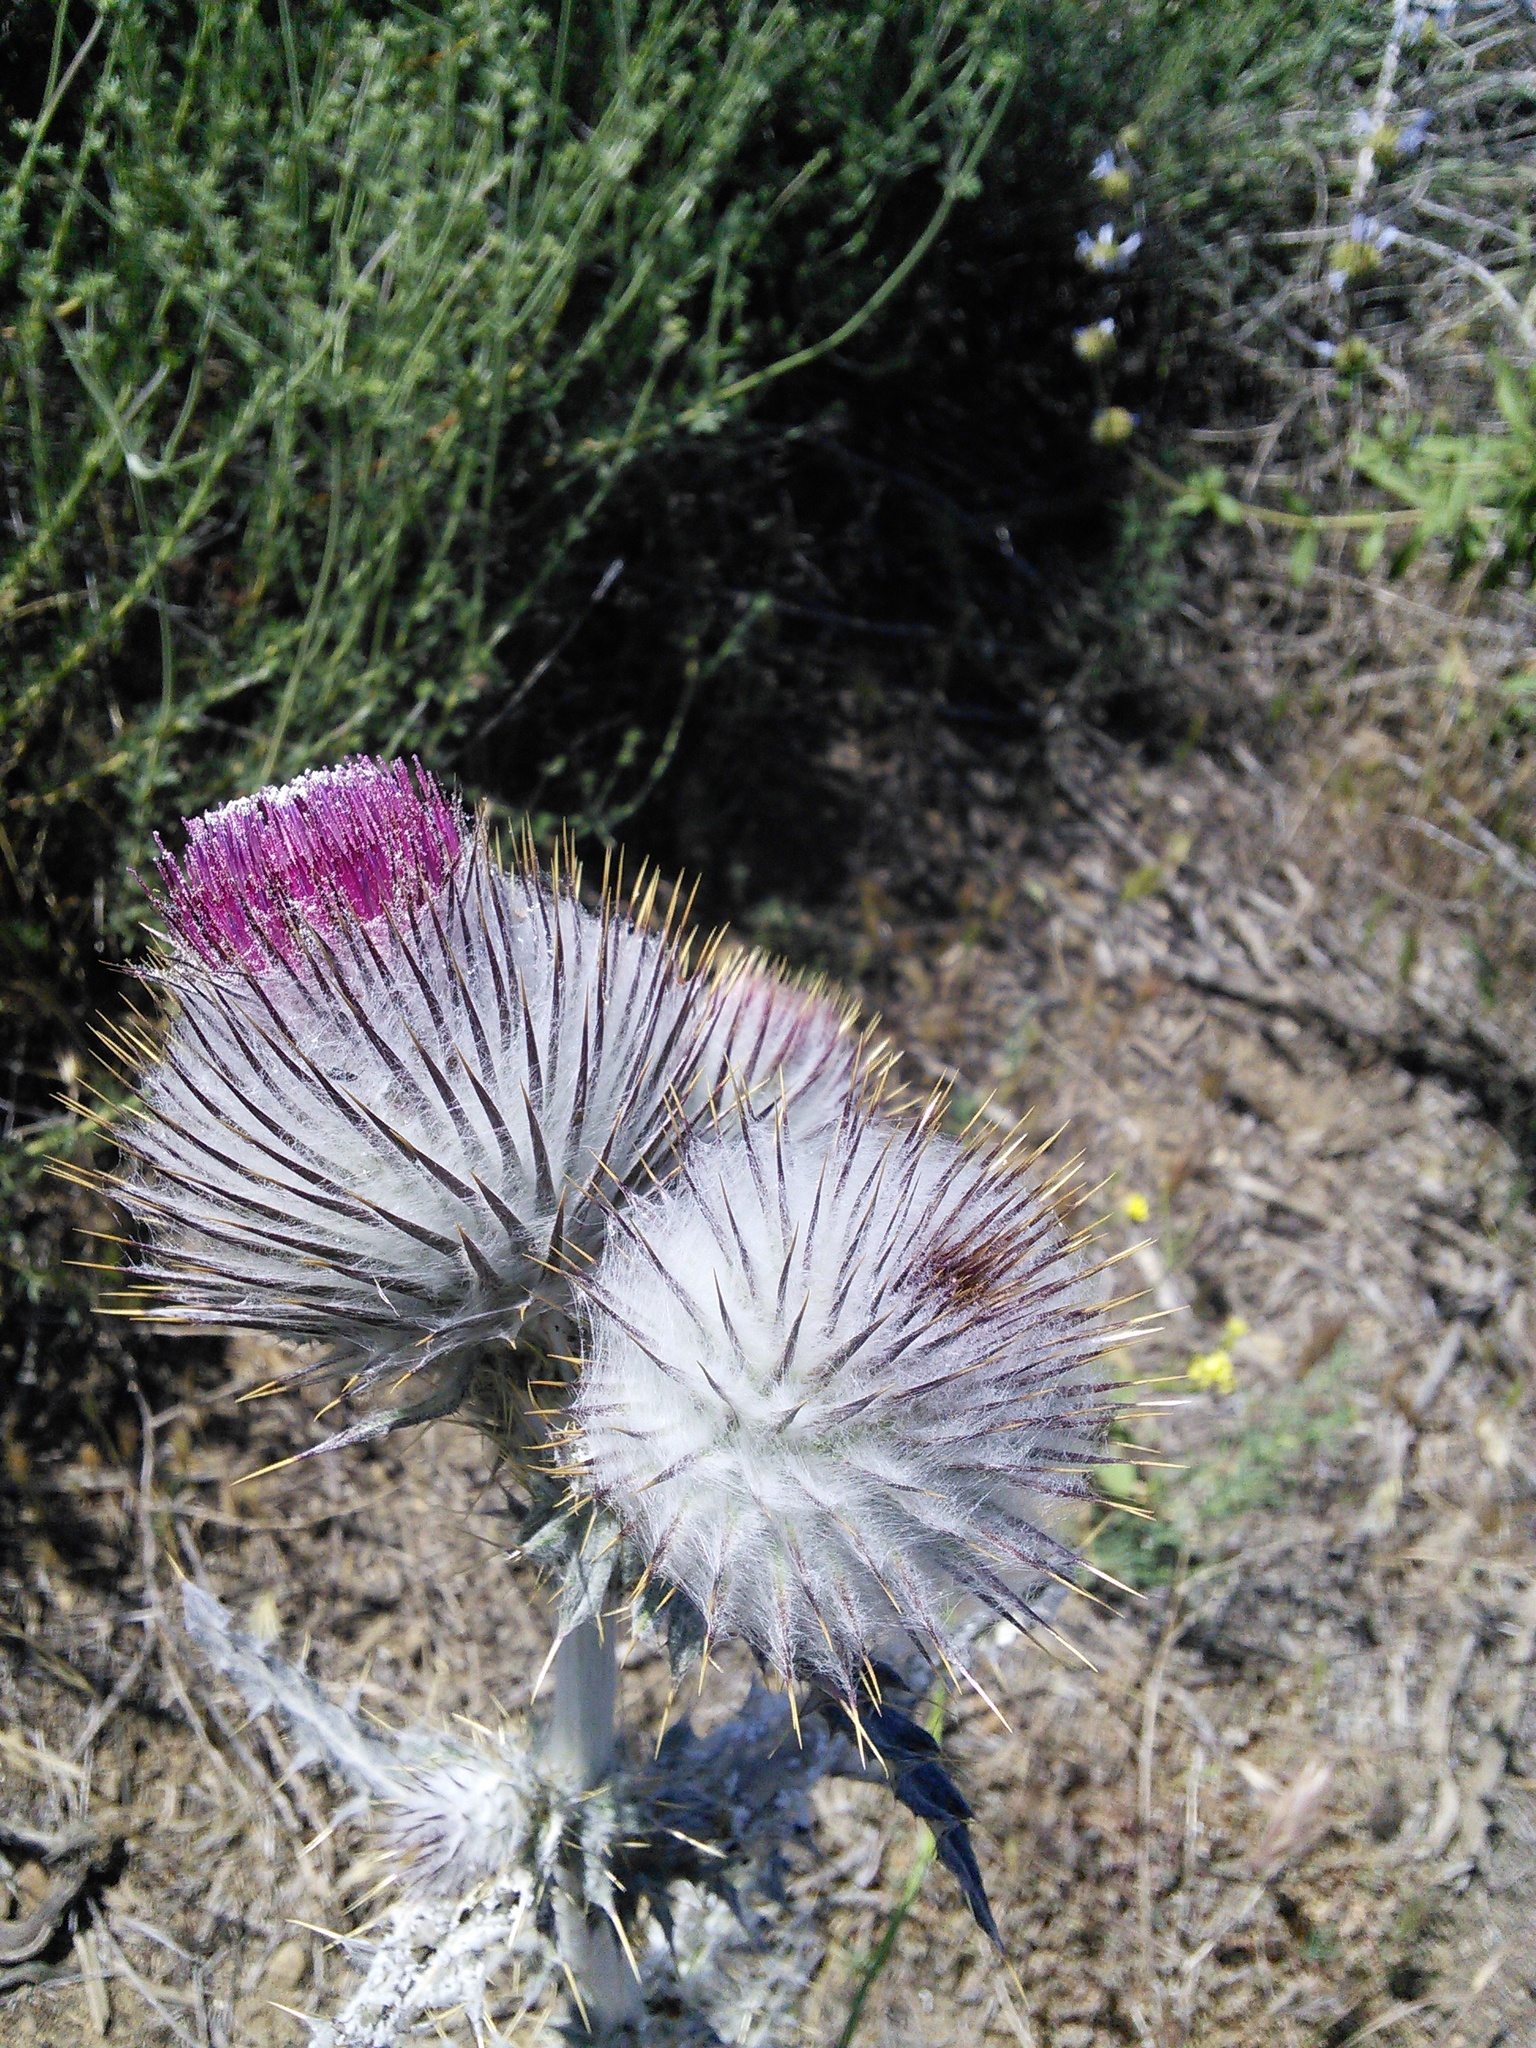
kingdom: Plantae
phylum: Tracheophyta
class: Magnoliopsida
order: Asterales
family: Asteraceae
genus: Cirsium
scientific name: Cirsium occidentale
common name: Western thistle
